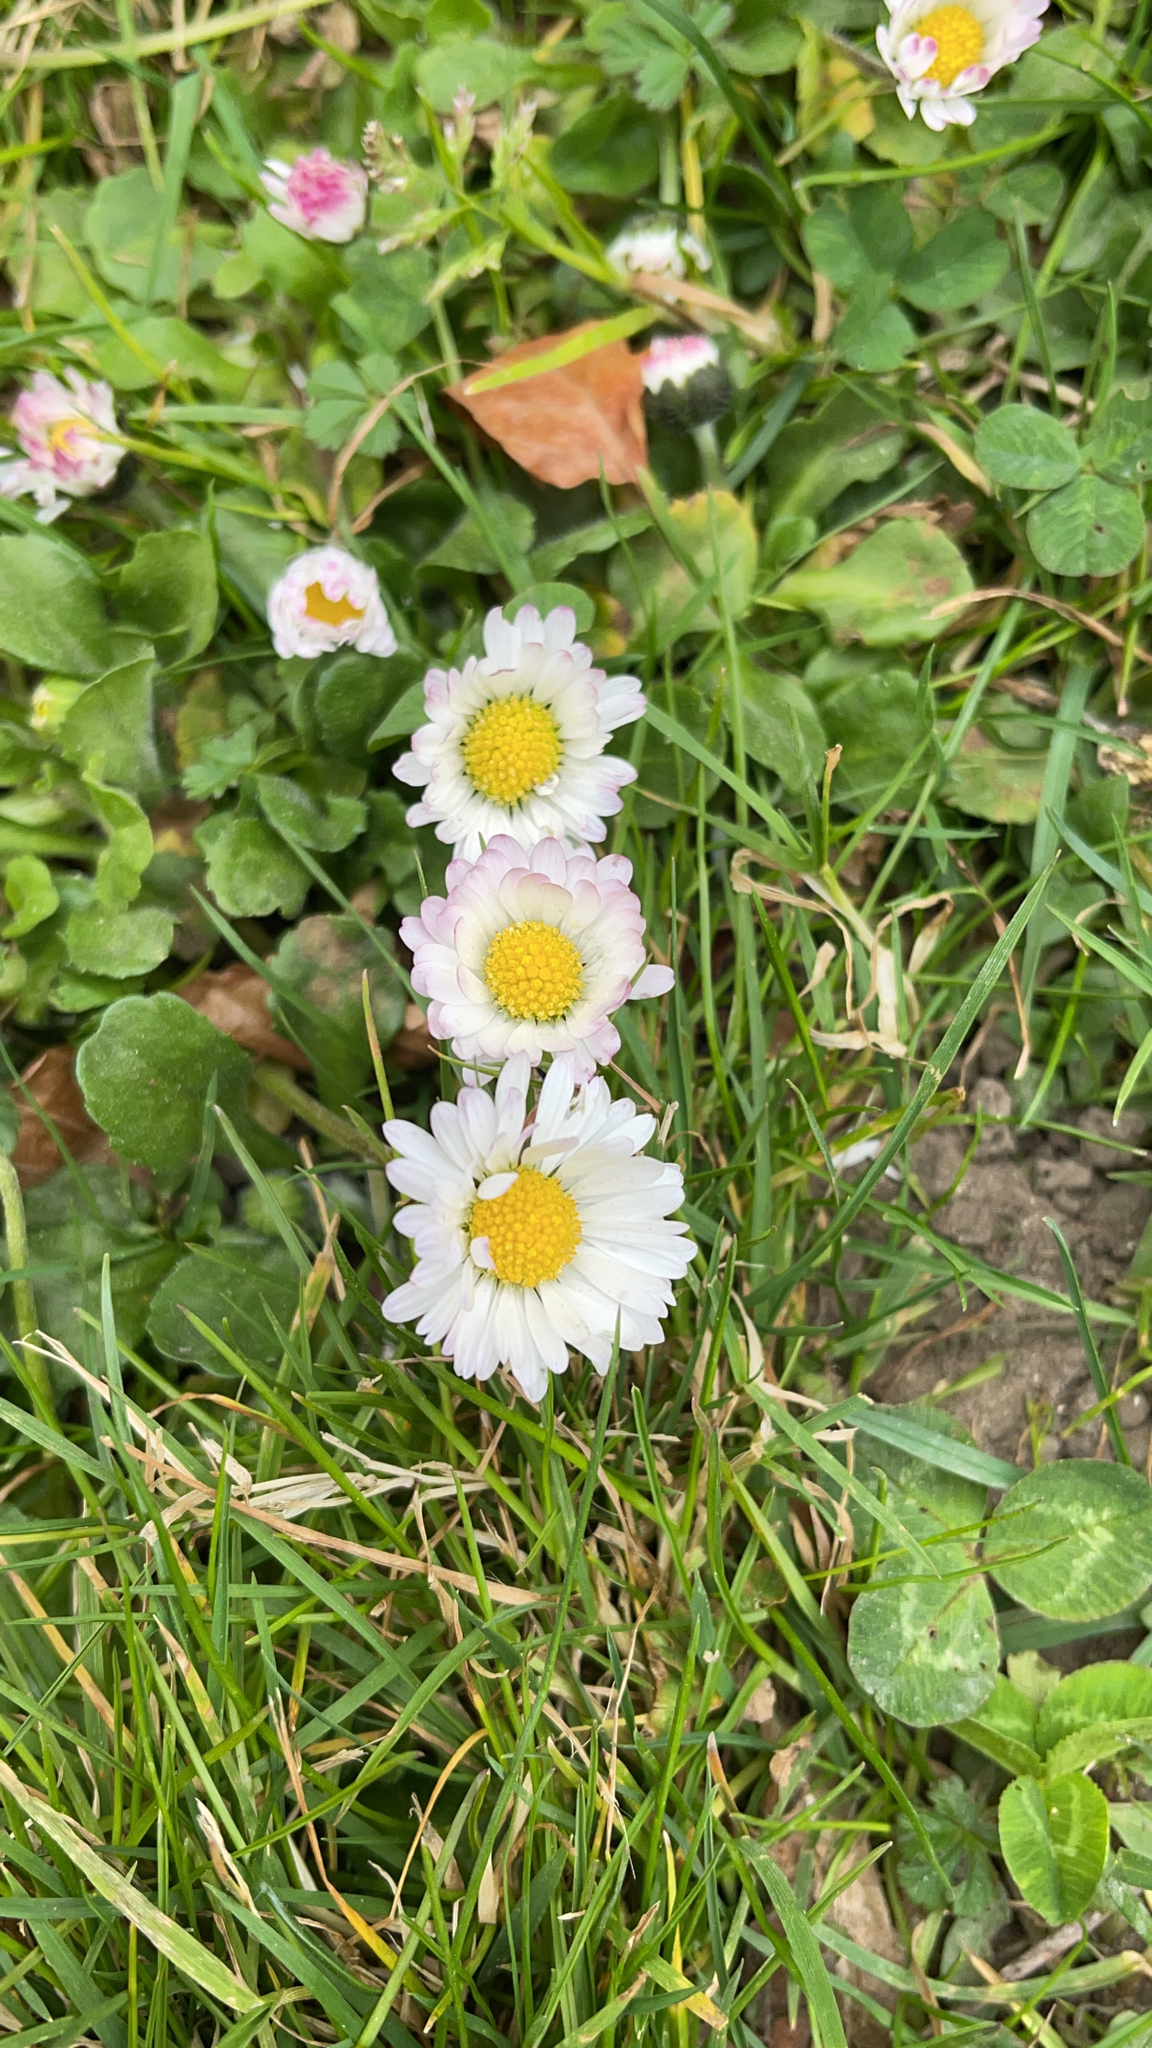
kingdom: Plantae
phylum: Tracheophyta
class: Magnoliopsida
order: Asterales
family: Asteraceae
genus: Bellis
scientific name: Bellis perennis
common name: Lawndaisy
